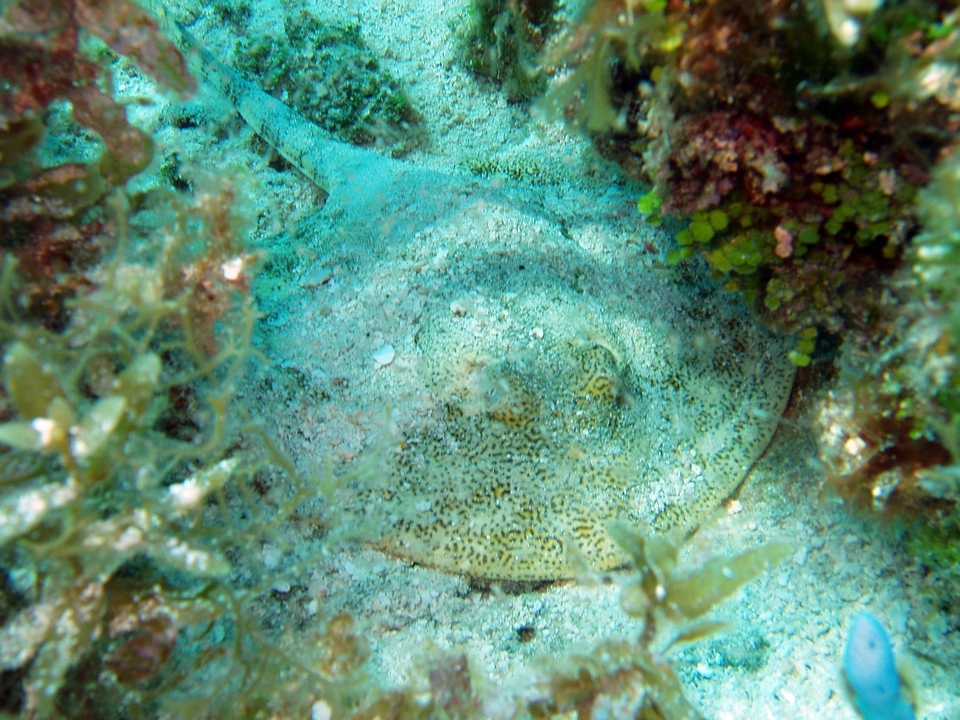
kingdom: Animalia
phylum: Chordata
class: Elasmobranchii
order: Myliobatiformes
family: Urotrygonidae
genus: Urobatis
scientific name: Urobatis jamaicensis
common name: Yellow stingray
